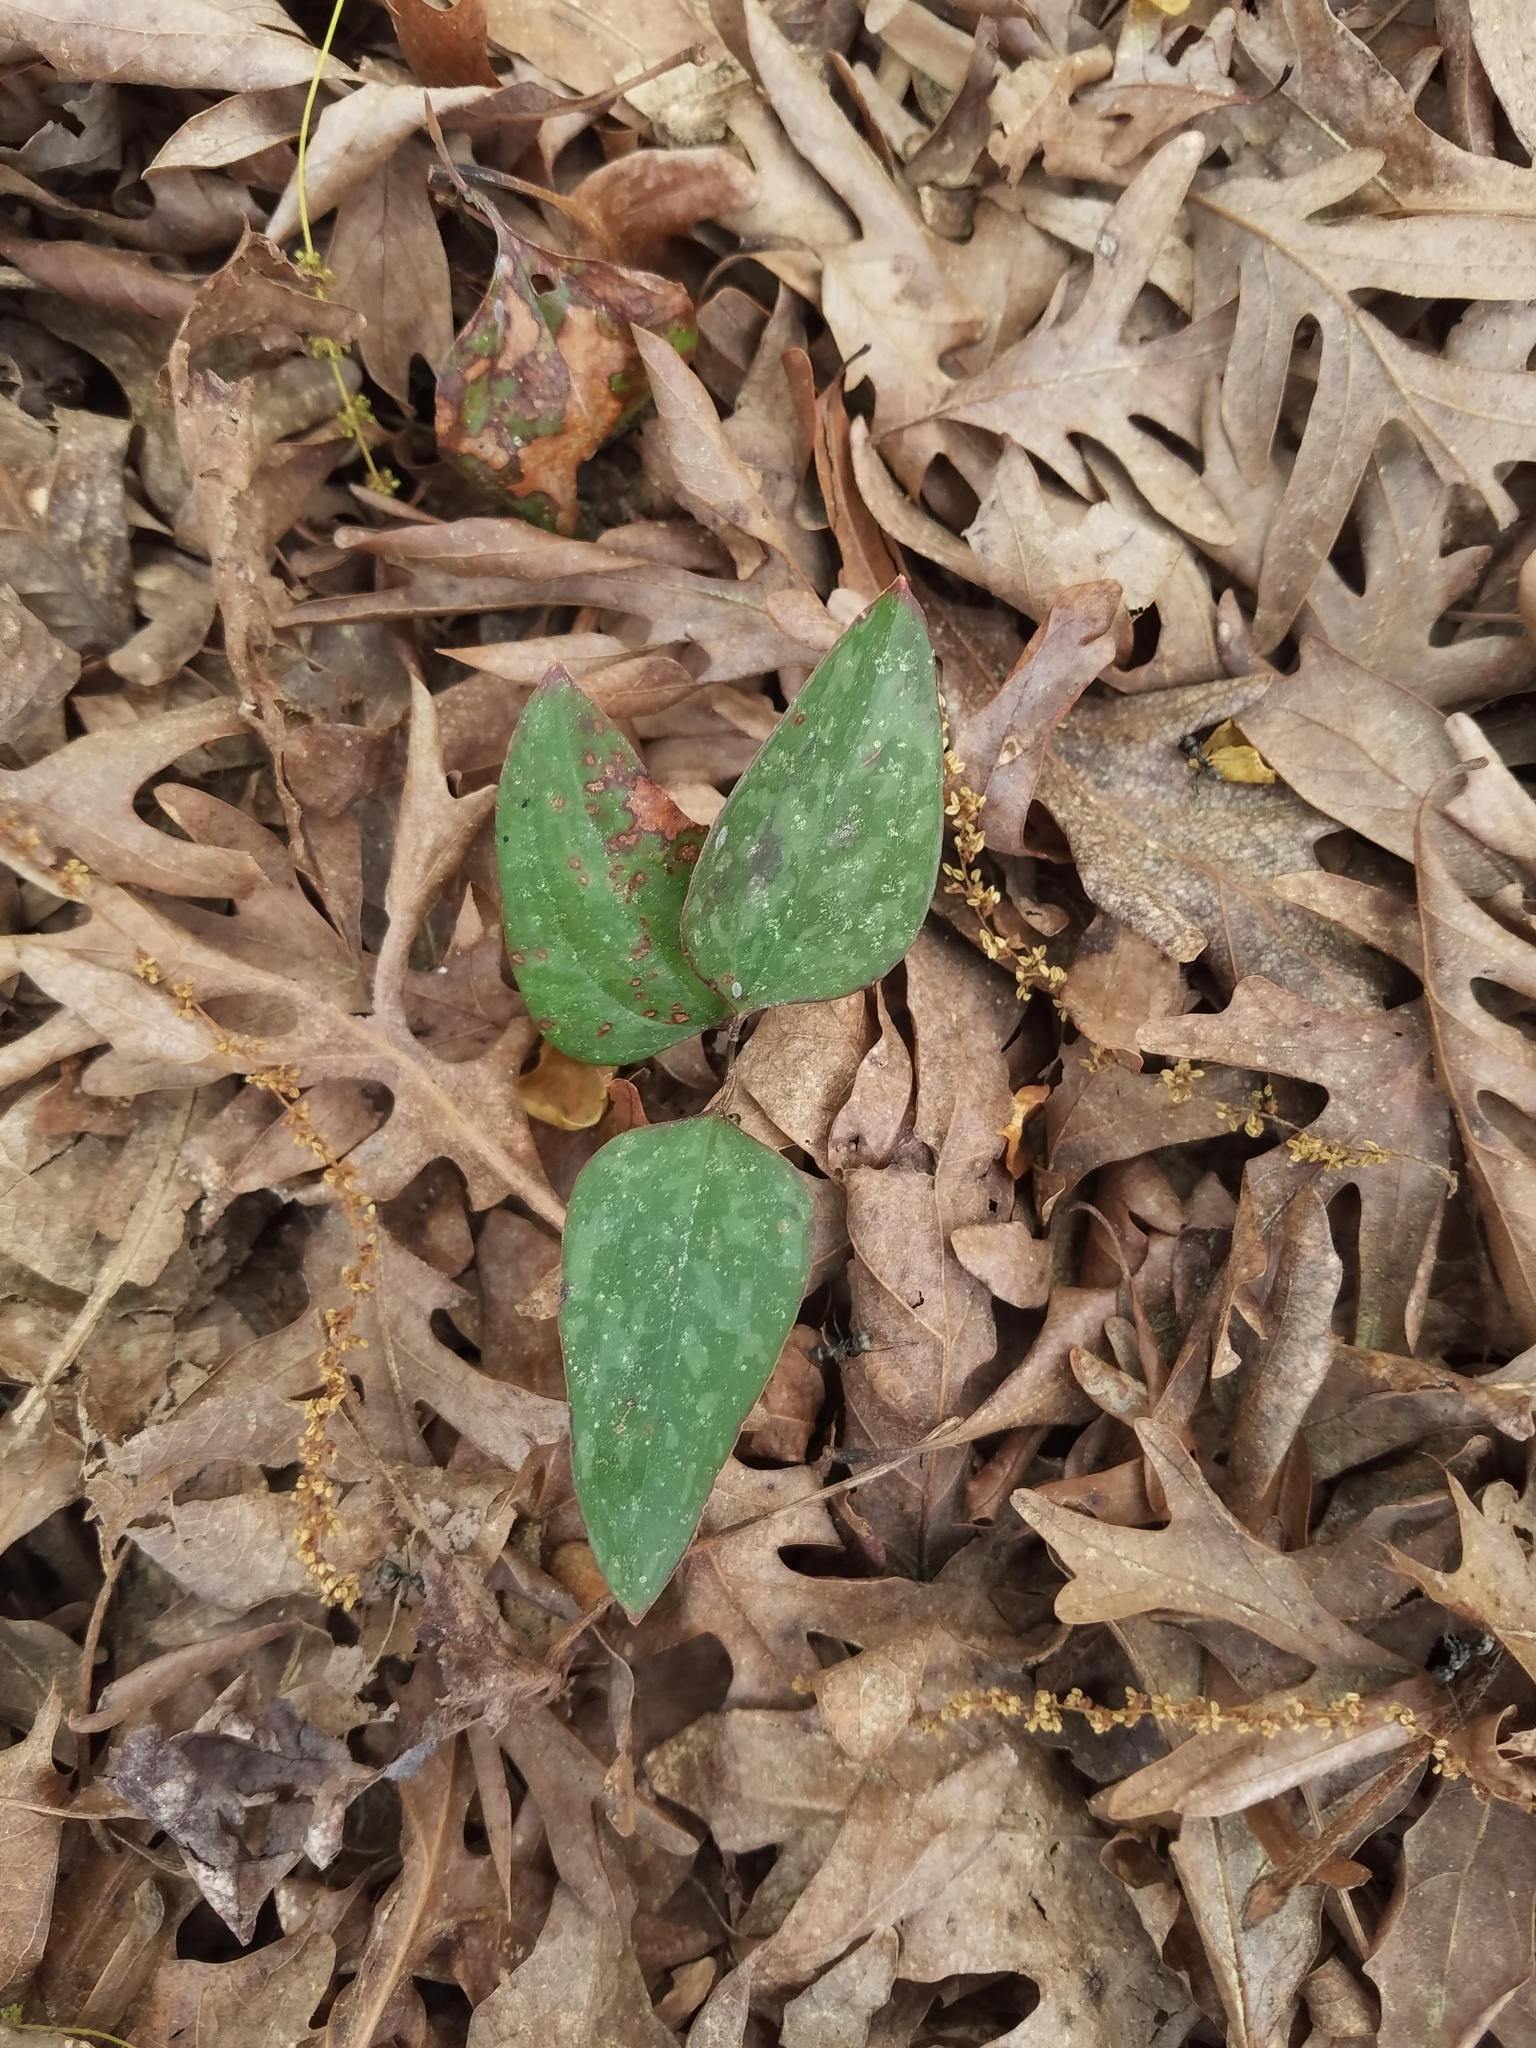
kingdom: Plantae
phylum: Tracheophyta
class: Liliopsida
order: Liliales
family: Smilacaceae
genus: Smilax
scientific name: Smilax glauca
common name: Cat greenbrier
